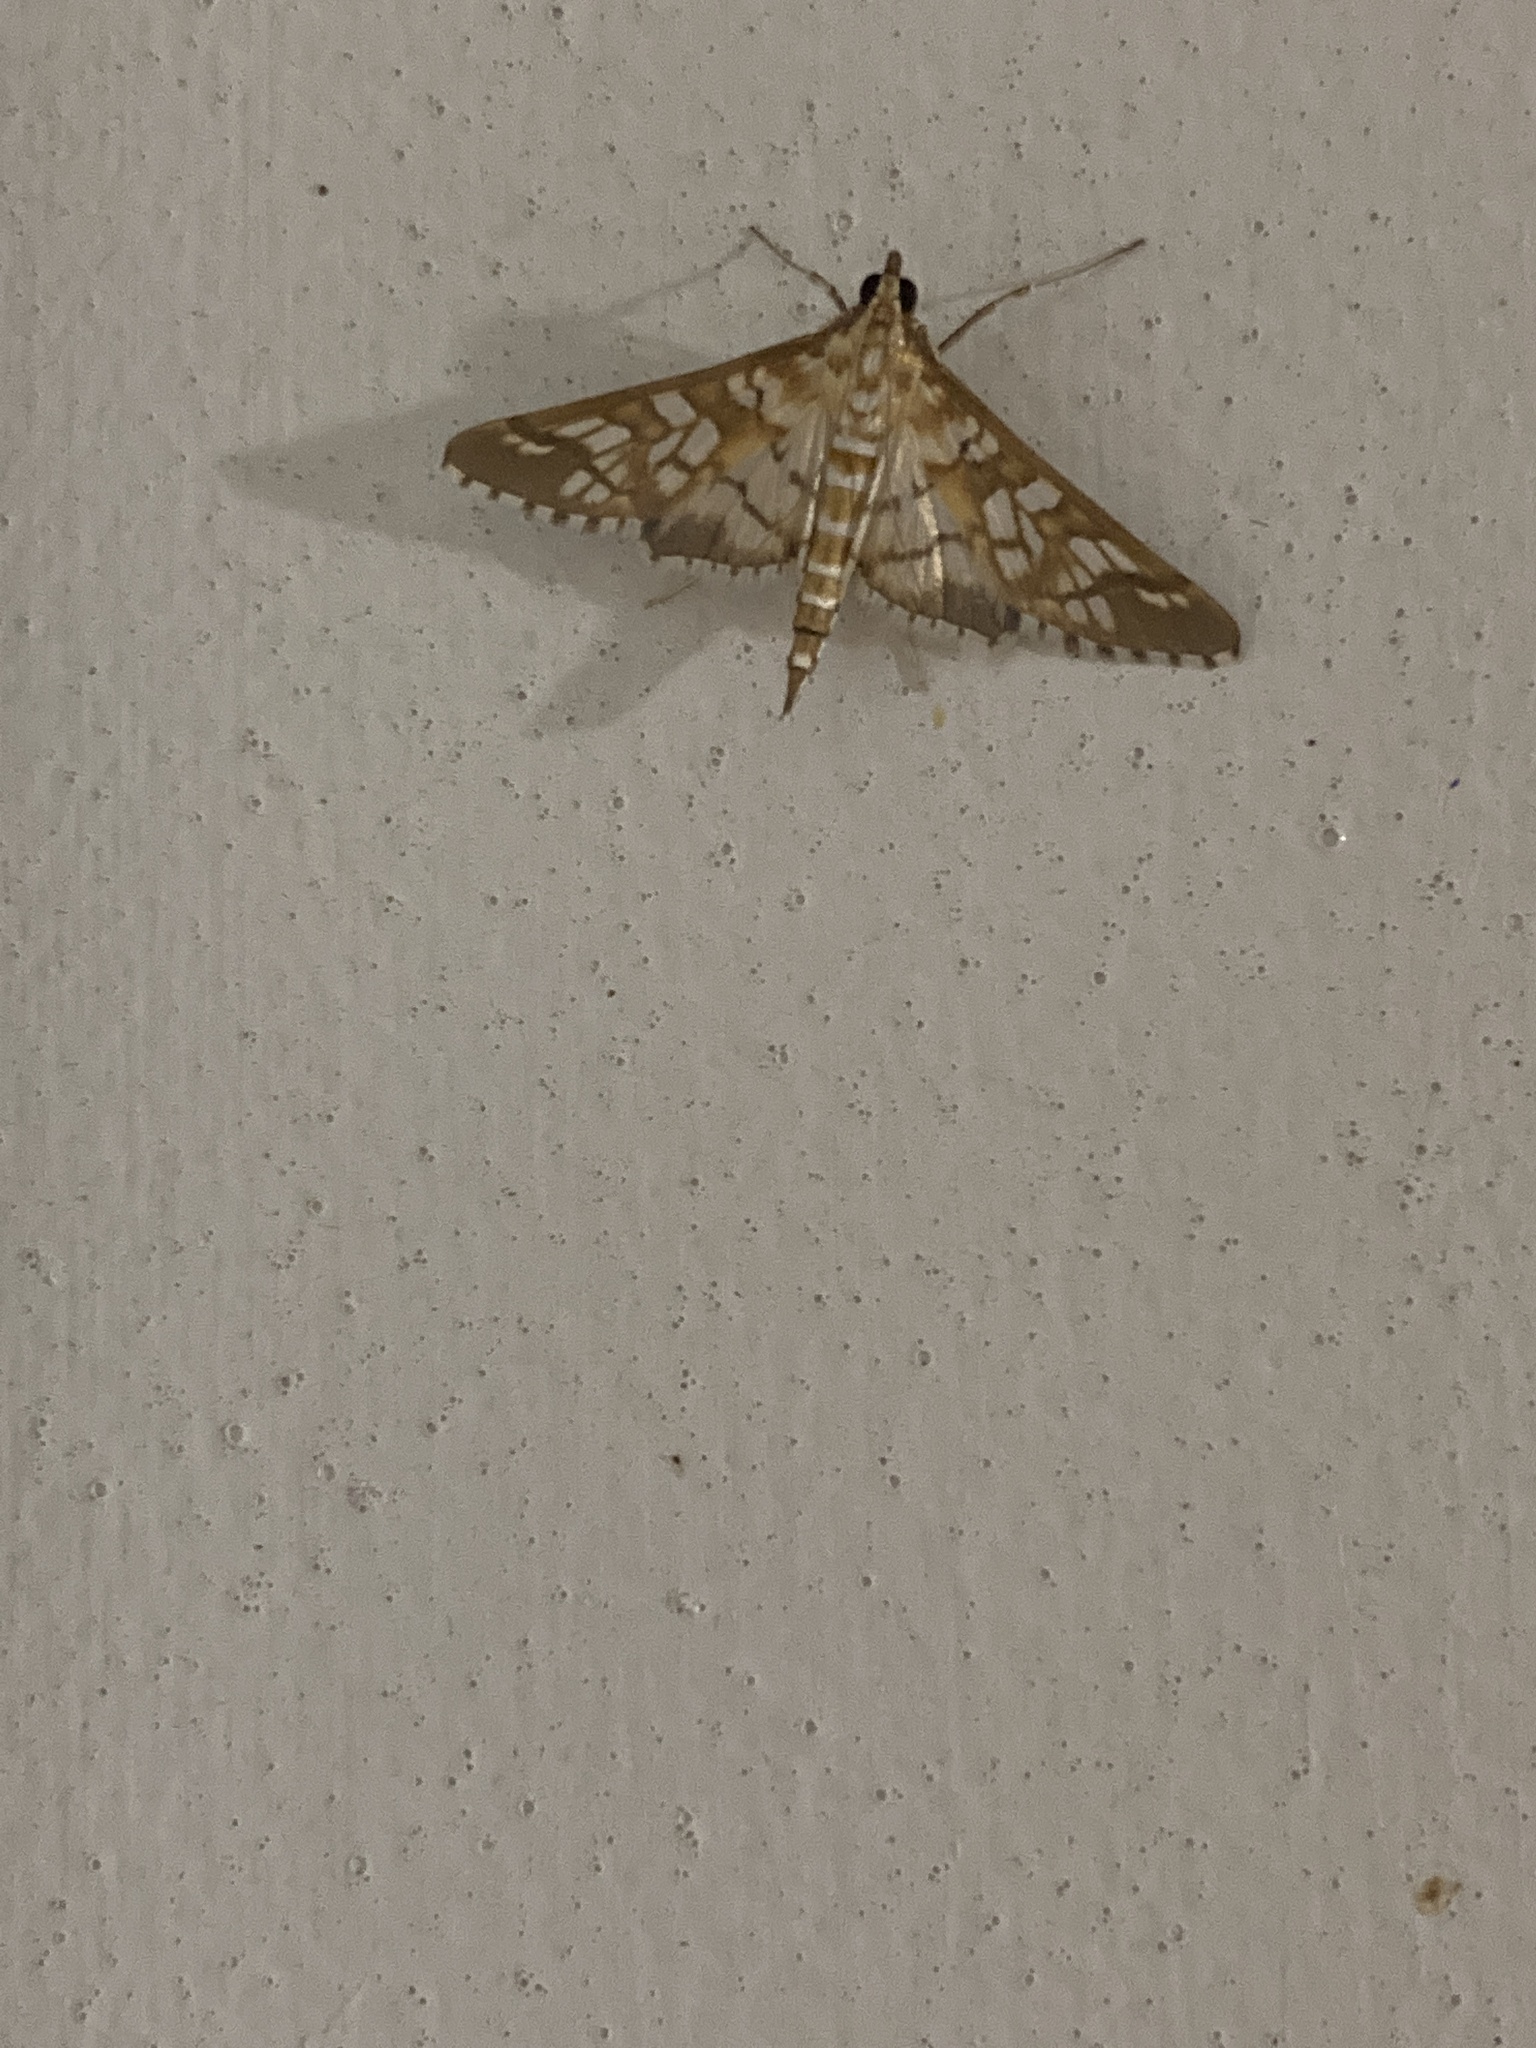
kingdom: Animalia
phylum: Arthropoda
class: Insecta
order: Lepidoptera
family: Crambidae
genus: Epipagis
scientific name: Epipagis fenestralis
